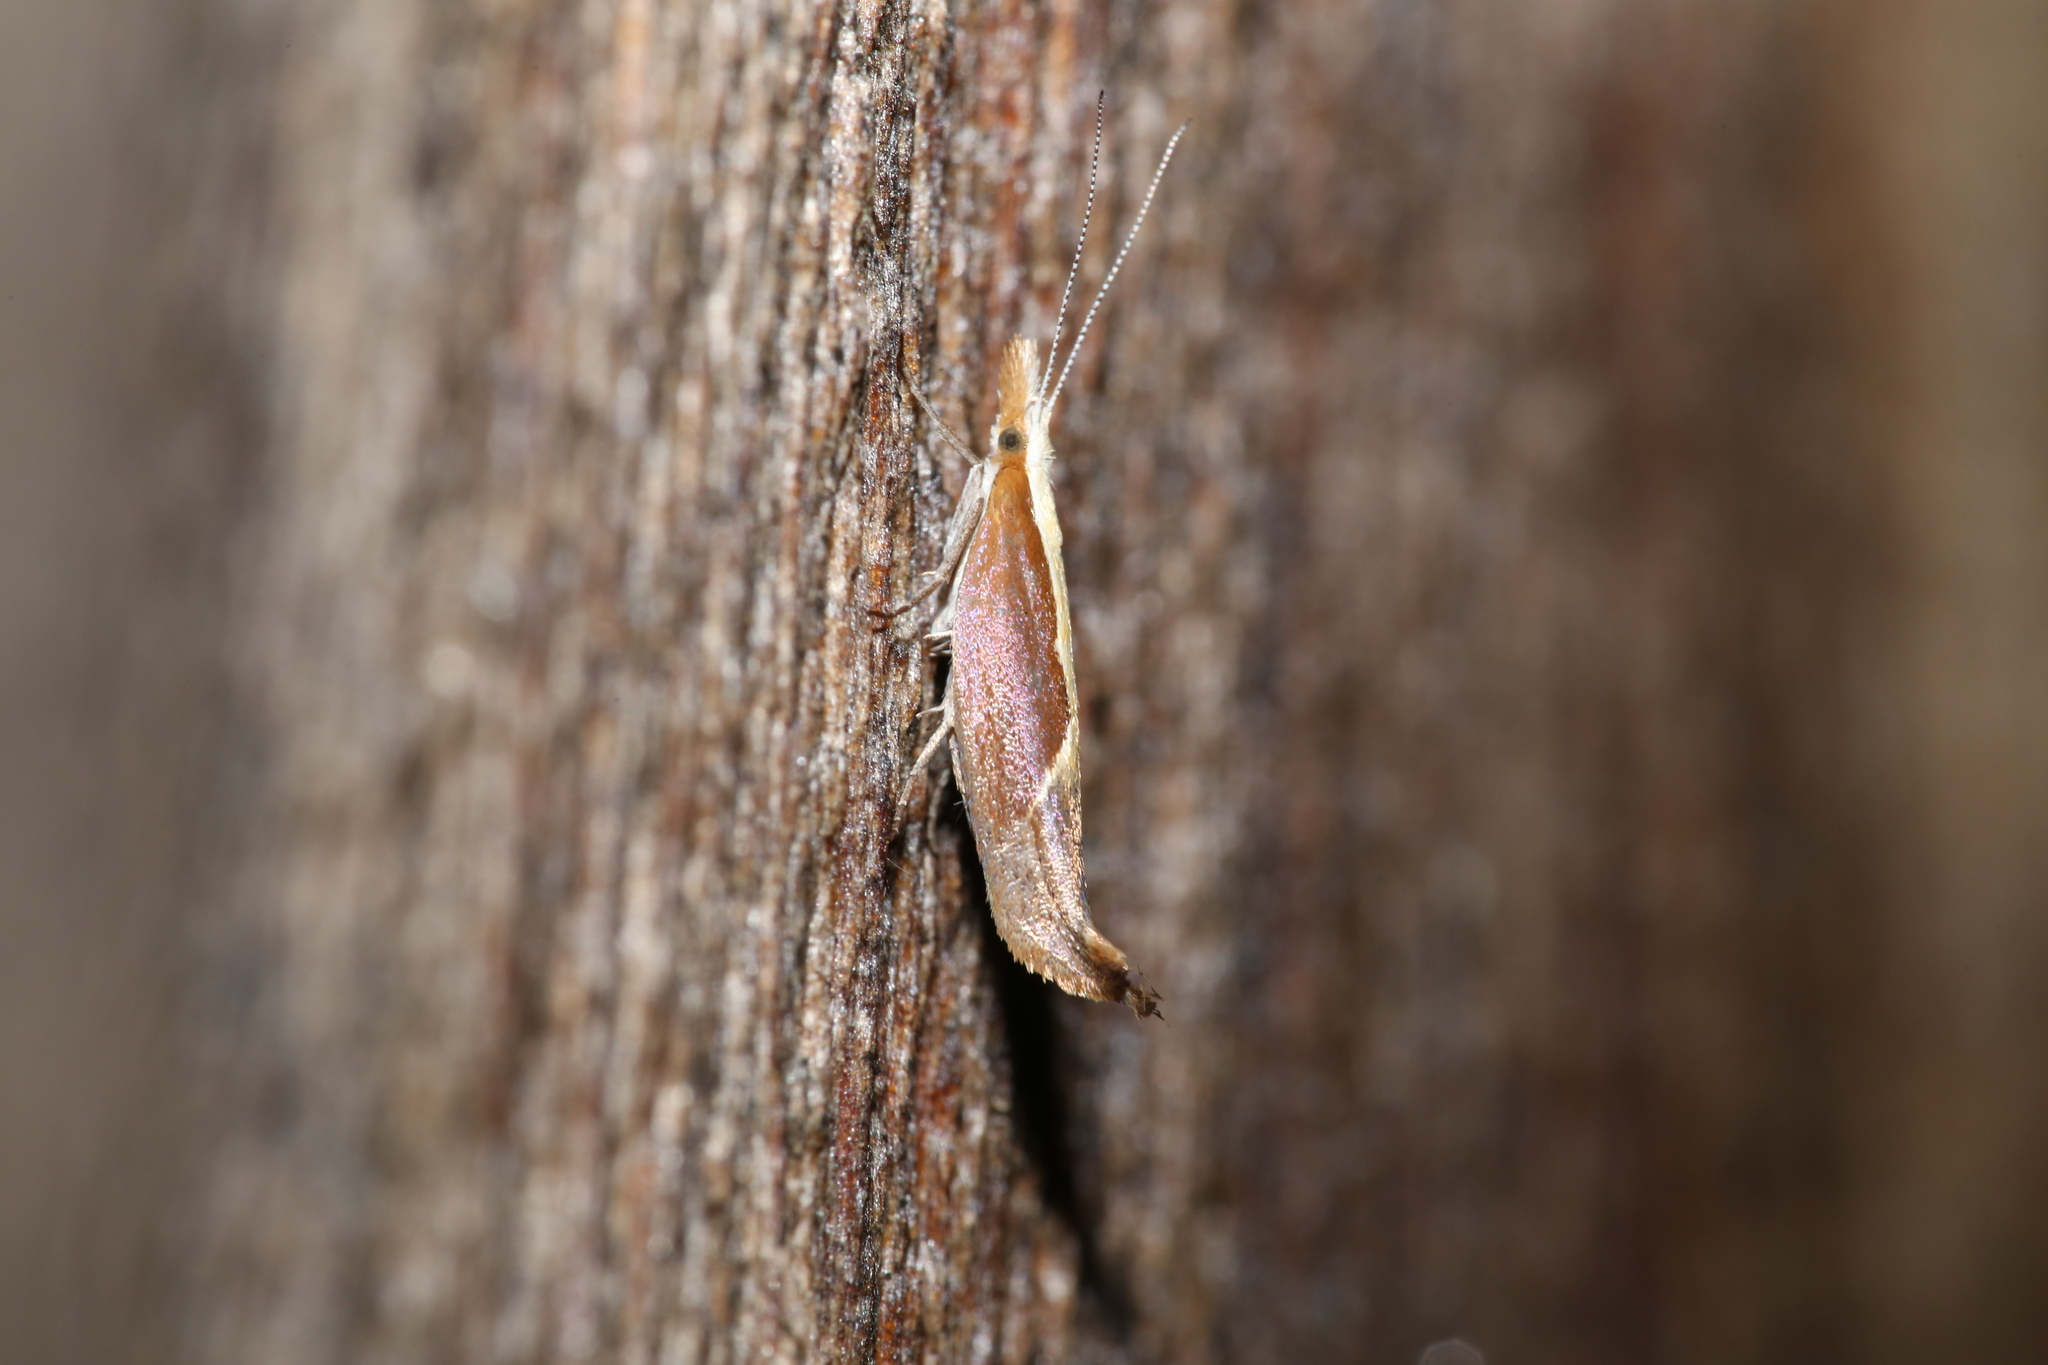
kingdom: Animalia
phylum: Arthropoda
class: Insecta
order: Lepidoptera
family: Ypsolophidae
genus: Ypsolopha
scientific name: Ypsolopha dentella
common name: Honeysuckle moth
